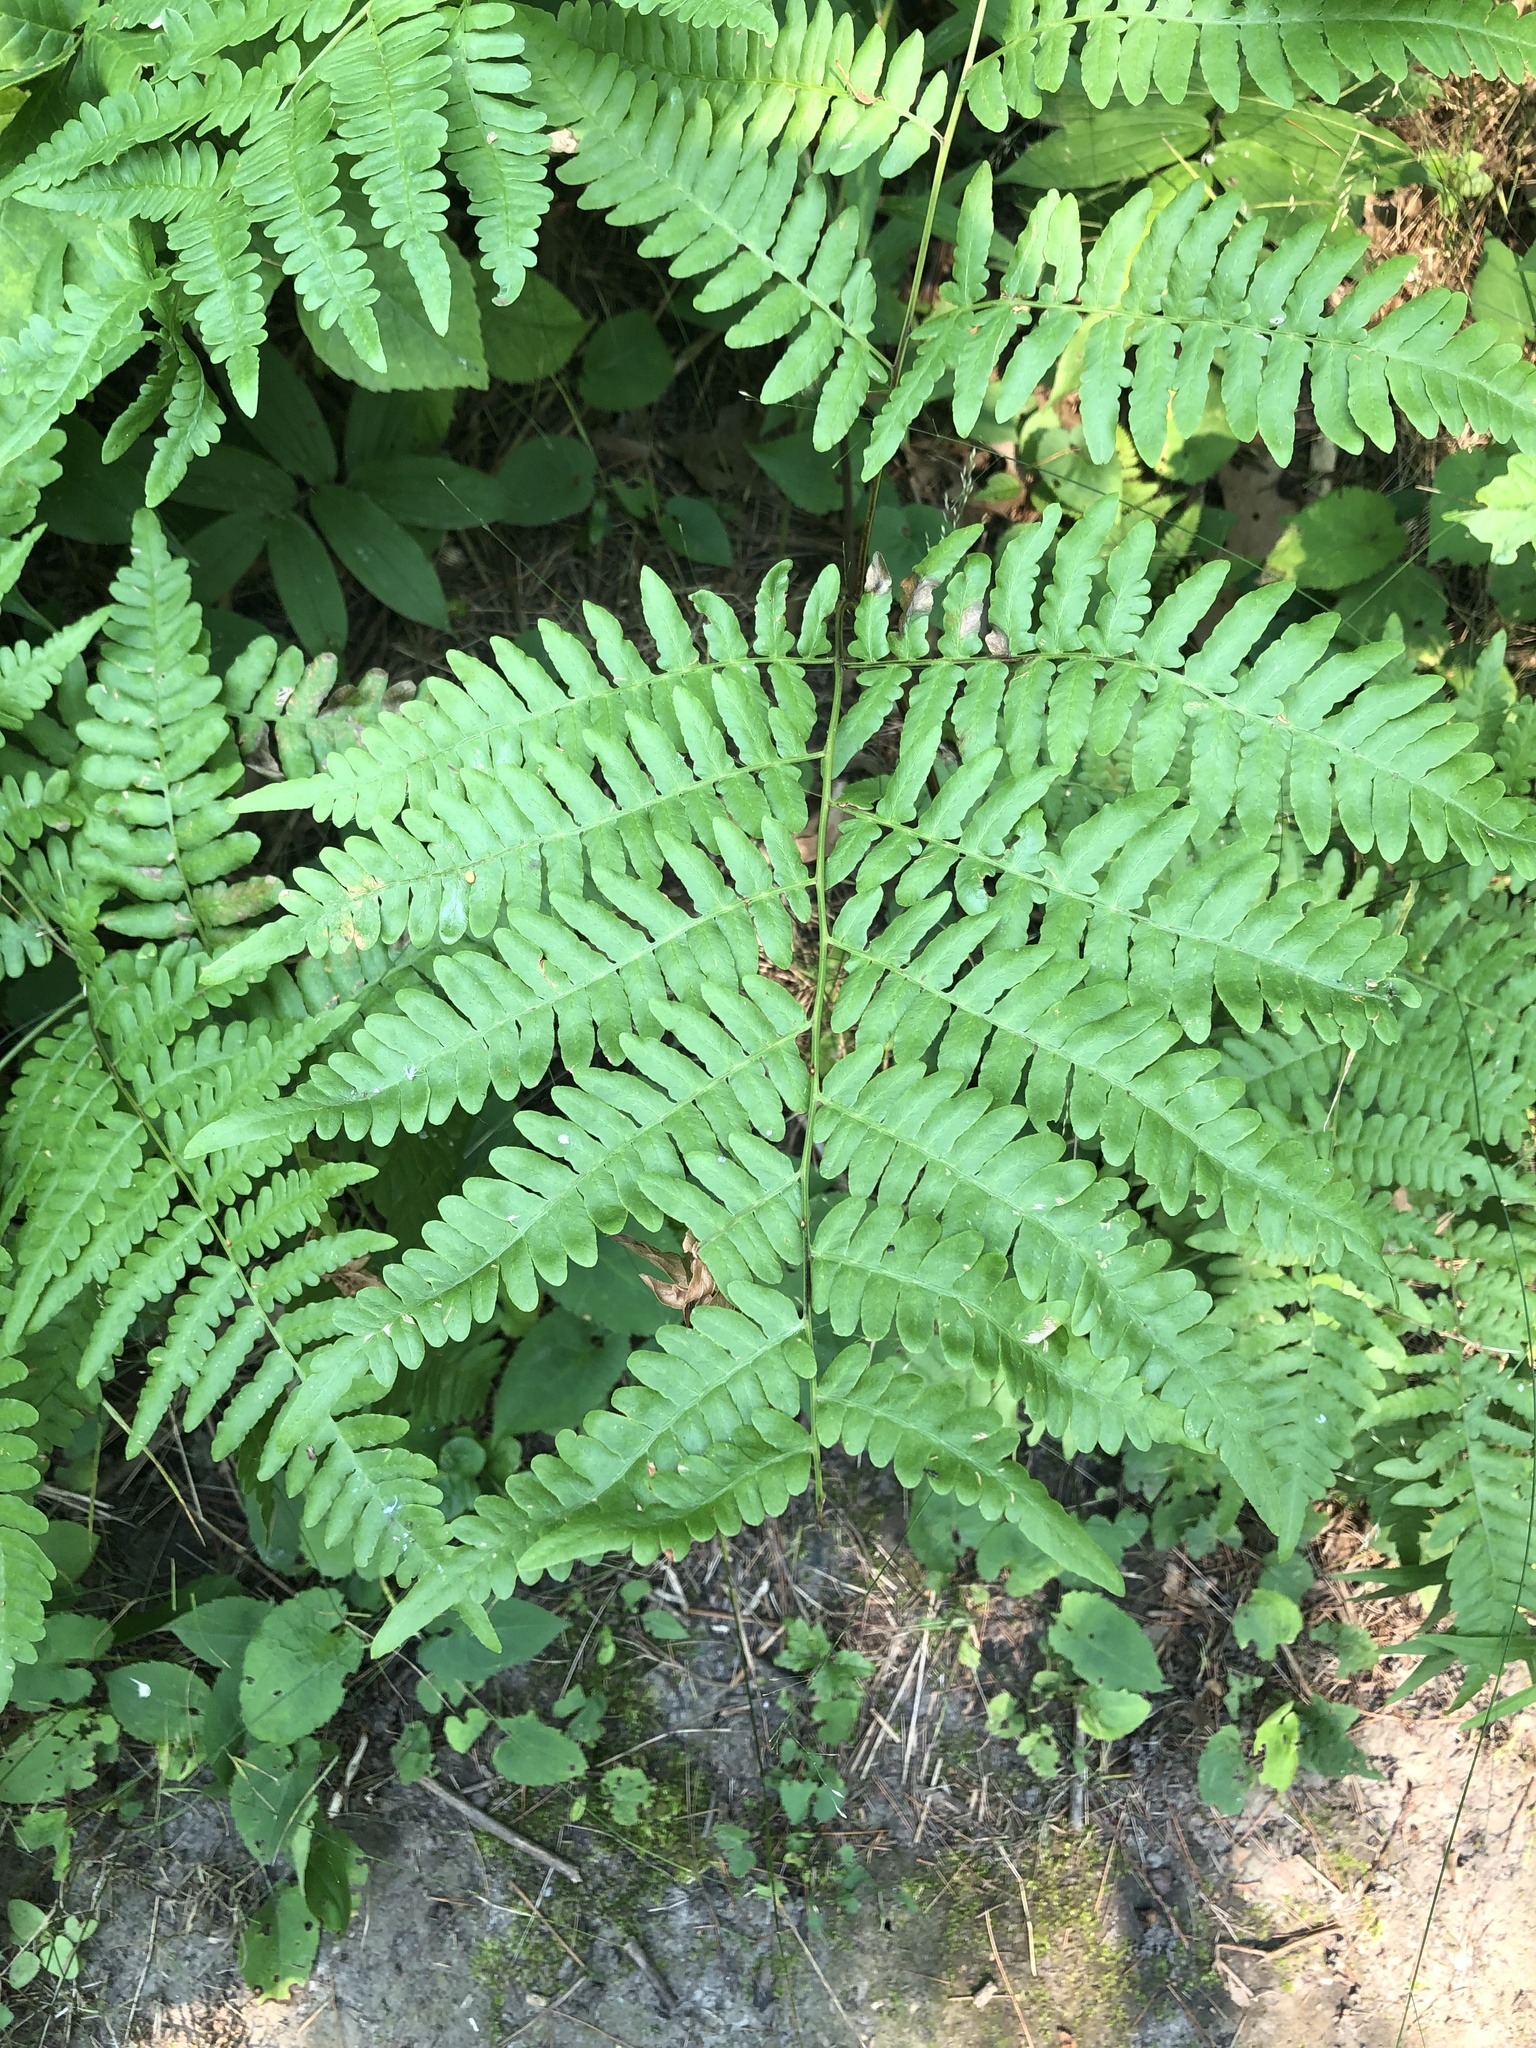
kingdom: Plantae
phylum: Tracheophyta
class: Polypodiopsida
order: Polypodiales
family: Dennstaedtiaceae
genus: Pteridium
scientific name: Pteridium aquilinum
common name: Bracken
